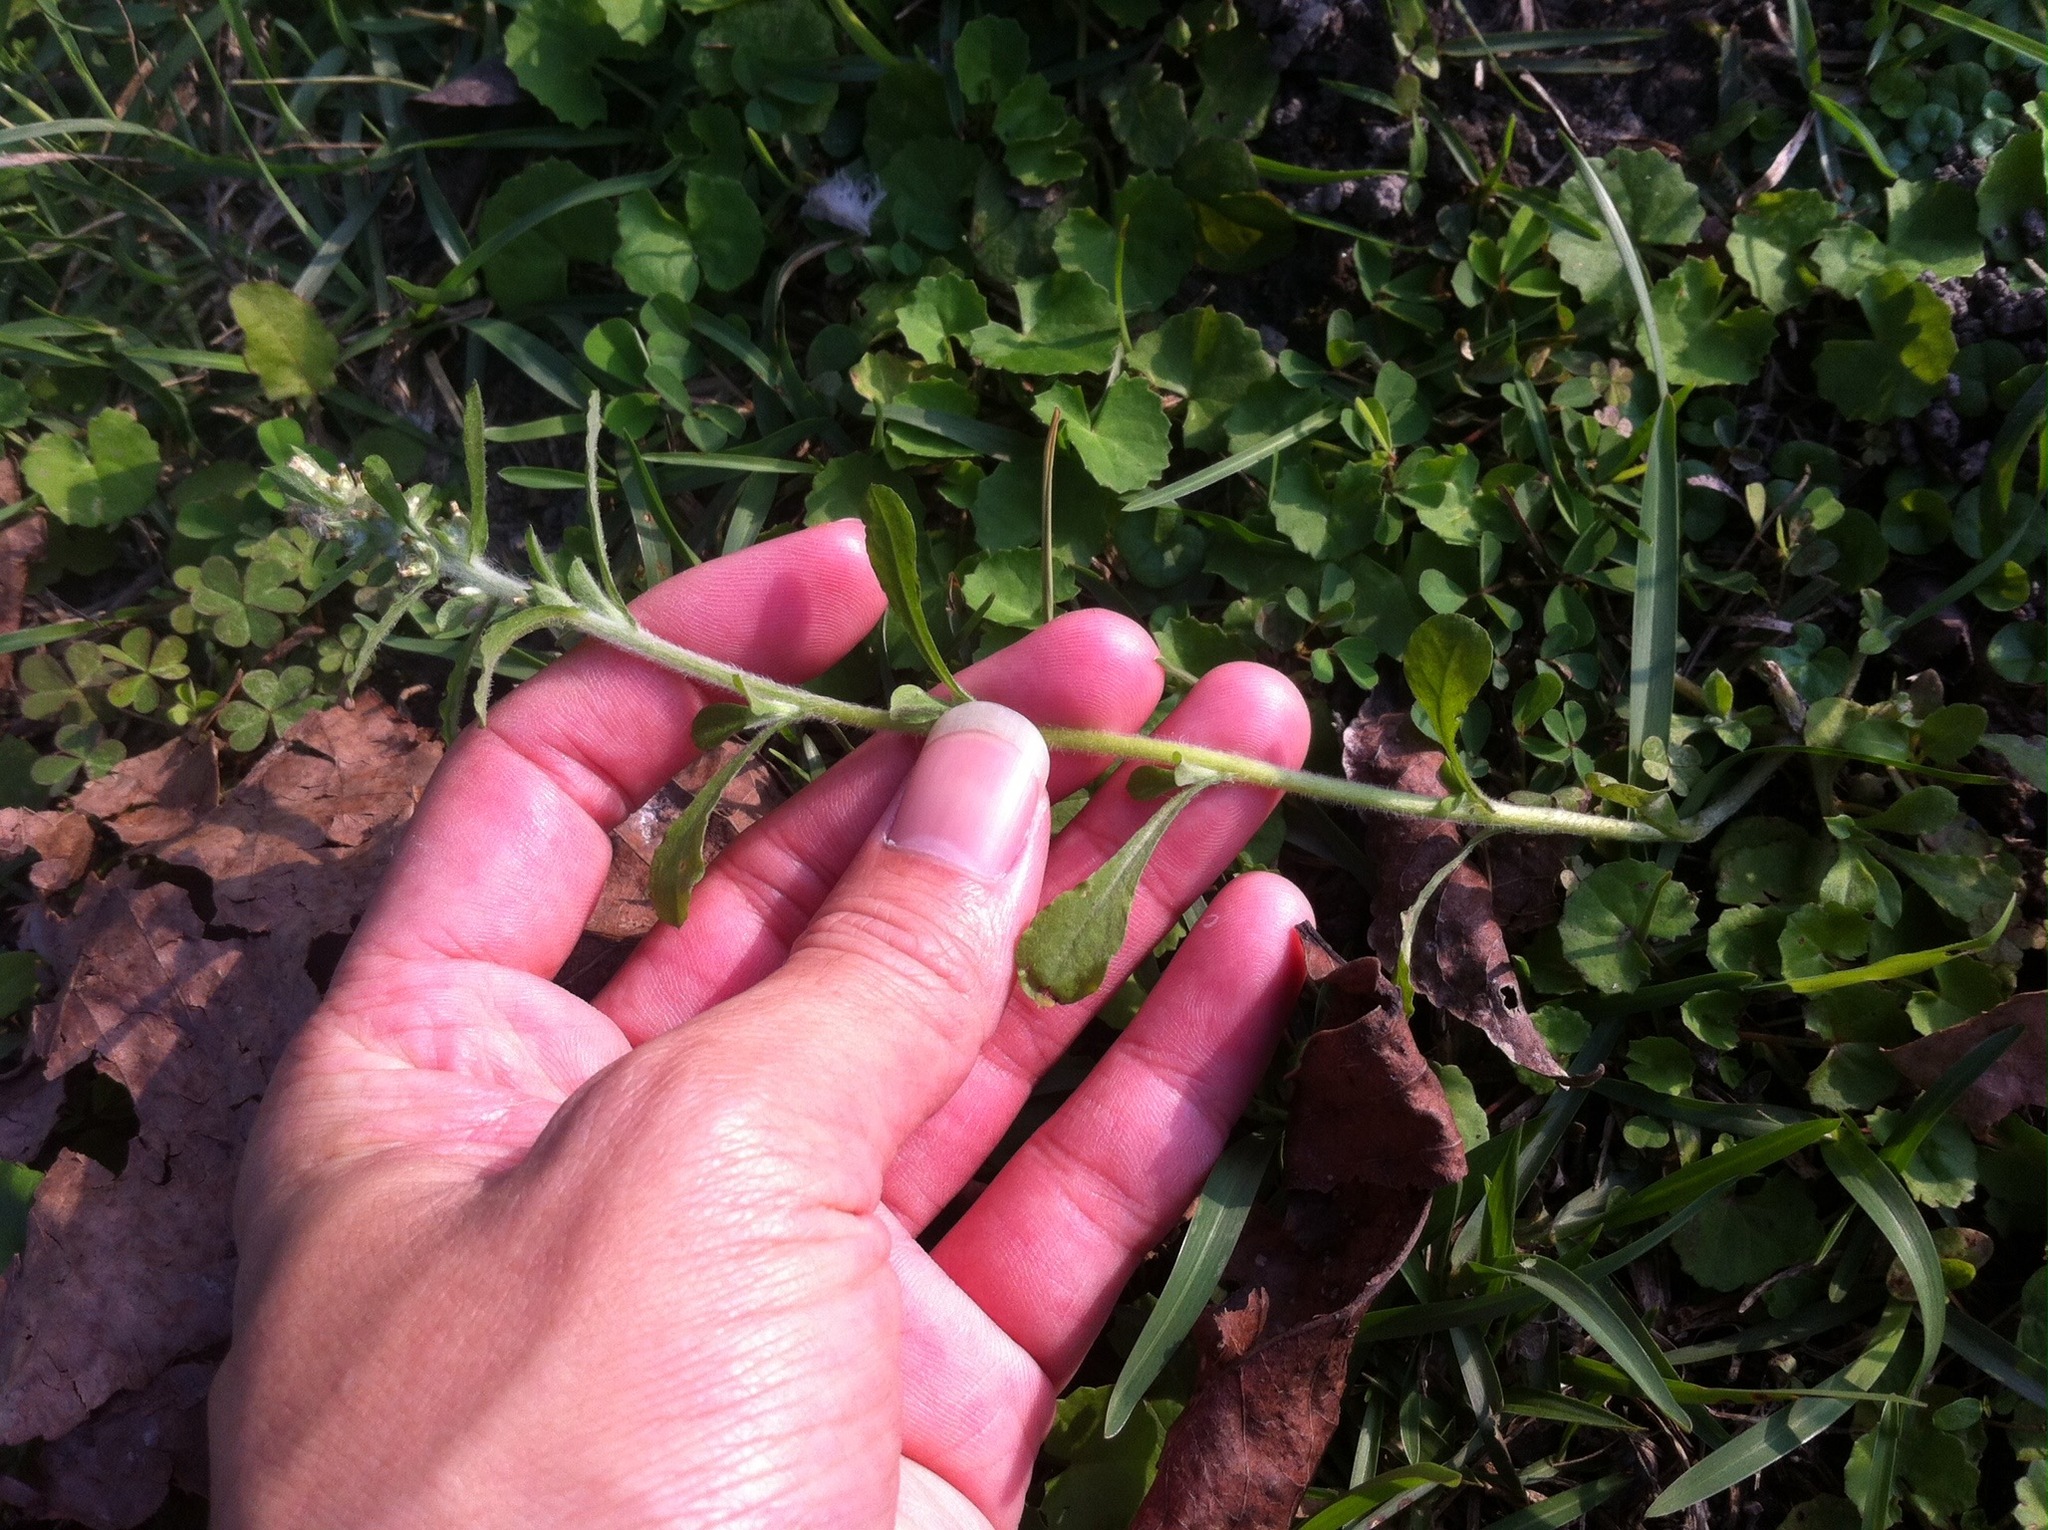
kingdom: Plantae
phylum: Tracheophyta
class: Magnoliopsida
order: Asterales
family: Asteraceae
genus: Gamochaeta
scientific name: Gamochaeta pensylvanica
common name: Pennsylvania everlasting
